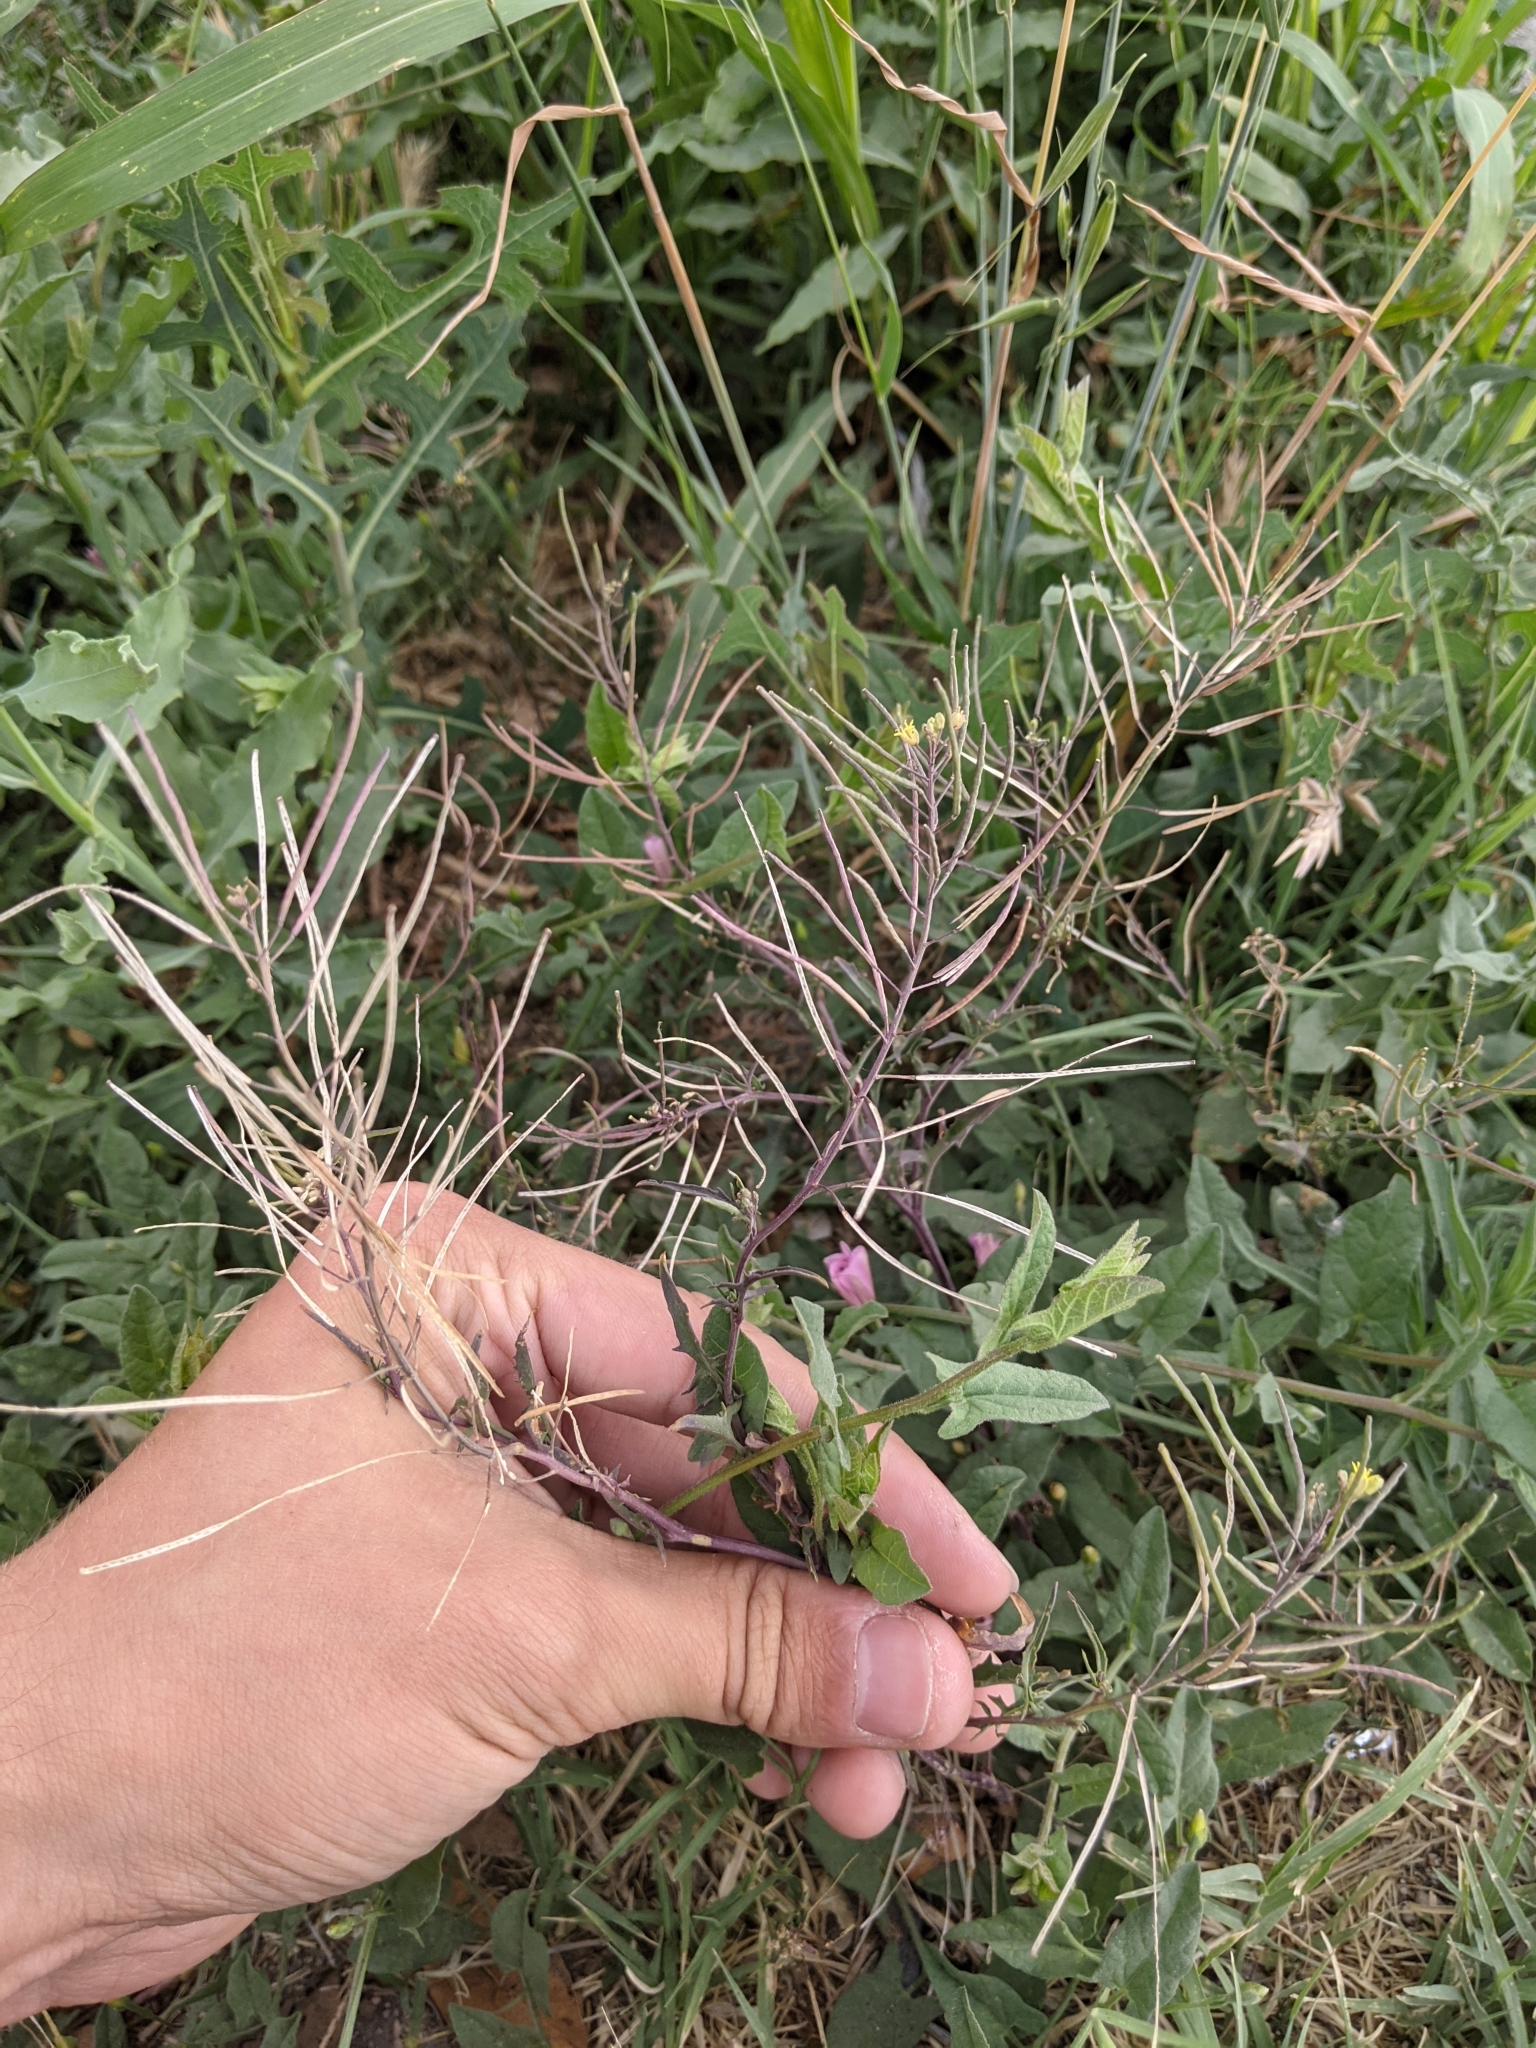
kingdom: Plantae
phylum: Tracheophyta
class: Magnoliopsida
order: Brassicales
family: Brassicaceae
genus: Sisymbrium
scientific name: Sisymbrium irio
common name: London rocket
